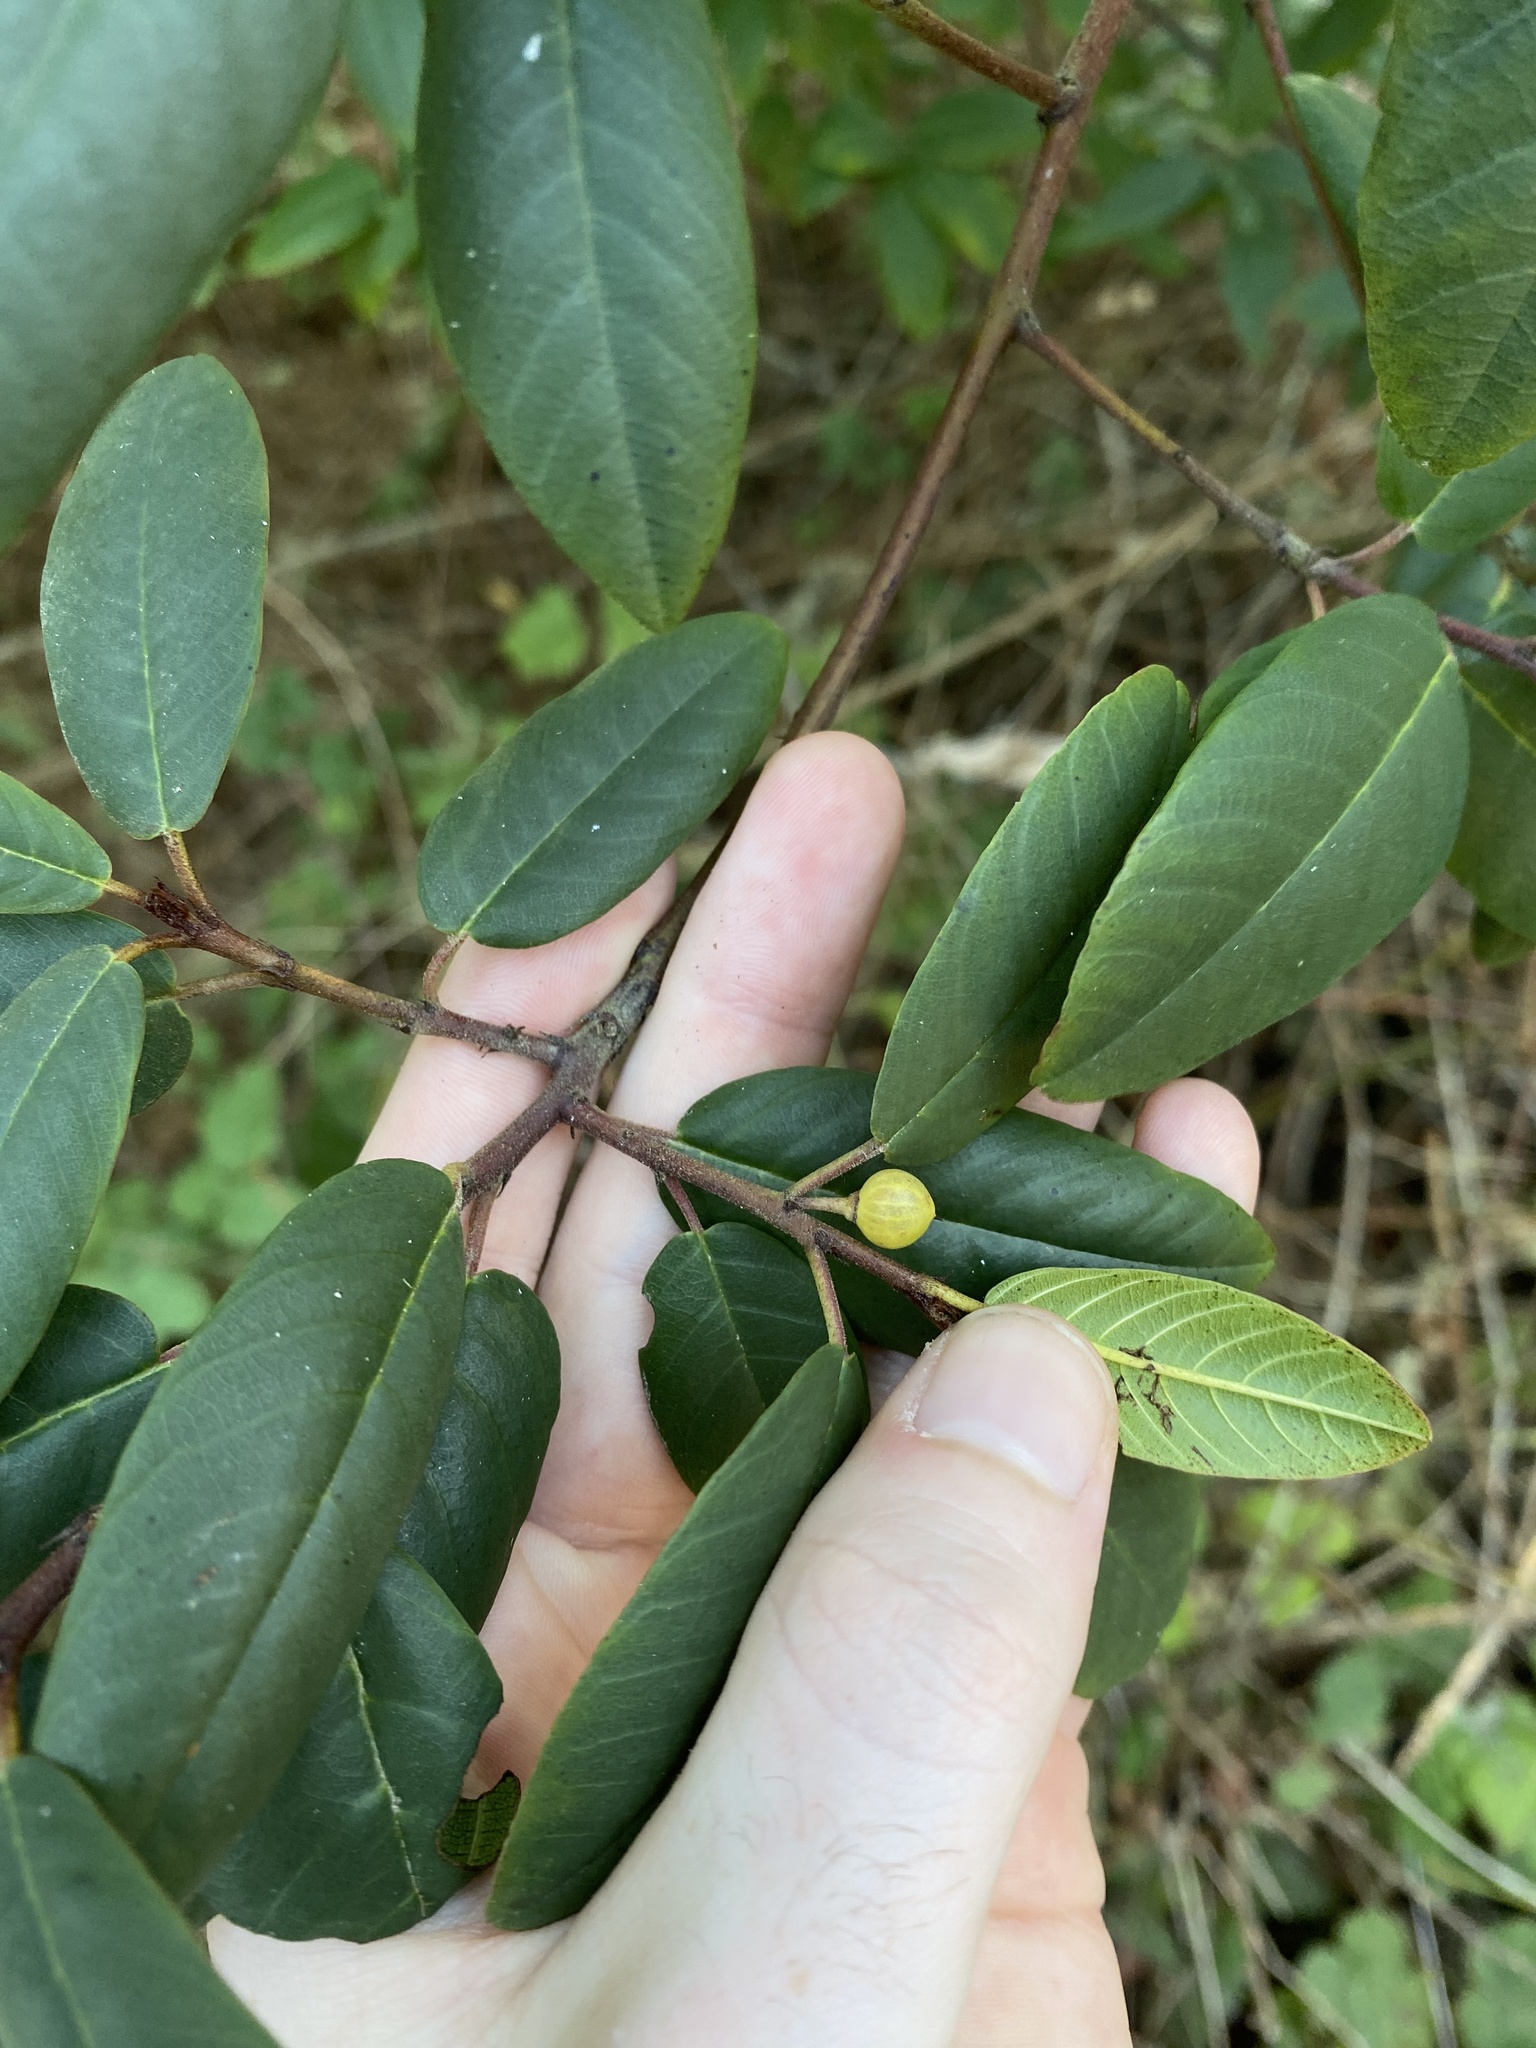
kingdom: Plantae
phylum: Tracheophyta
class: Magnoliopsida
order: Rosales
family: Rhamnaceae
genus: Frangula
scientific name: Frangula californica
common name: California buckthorn
